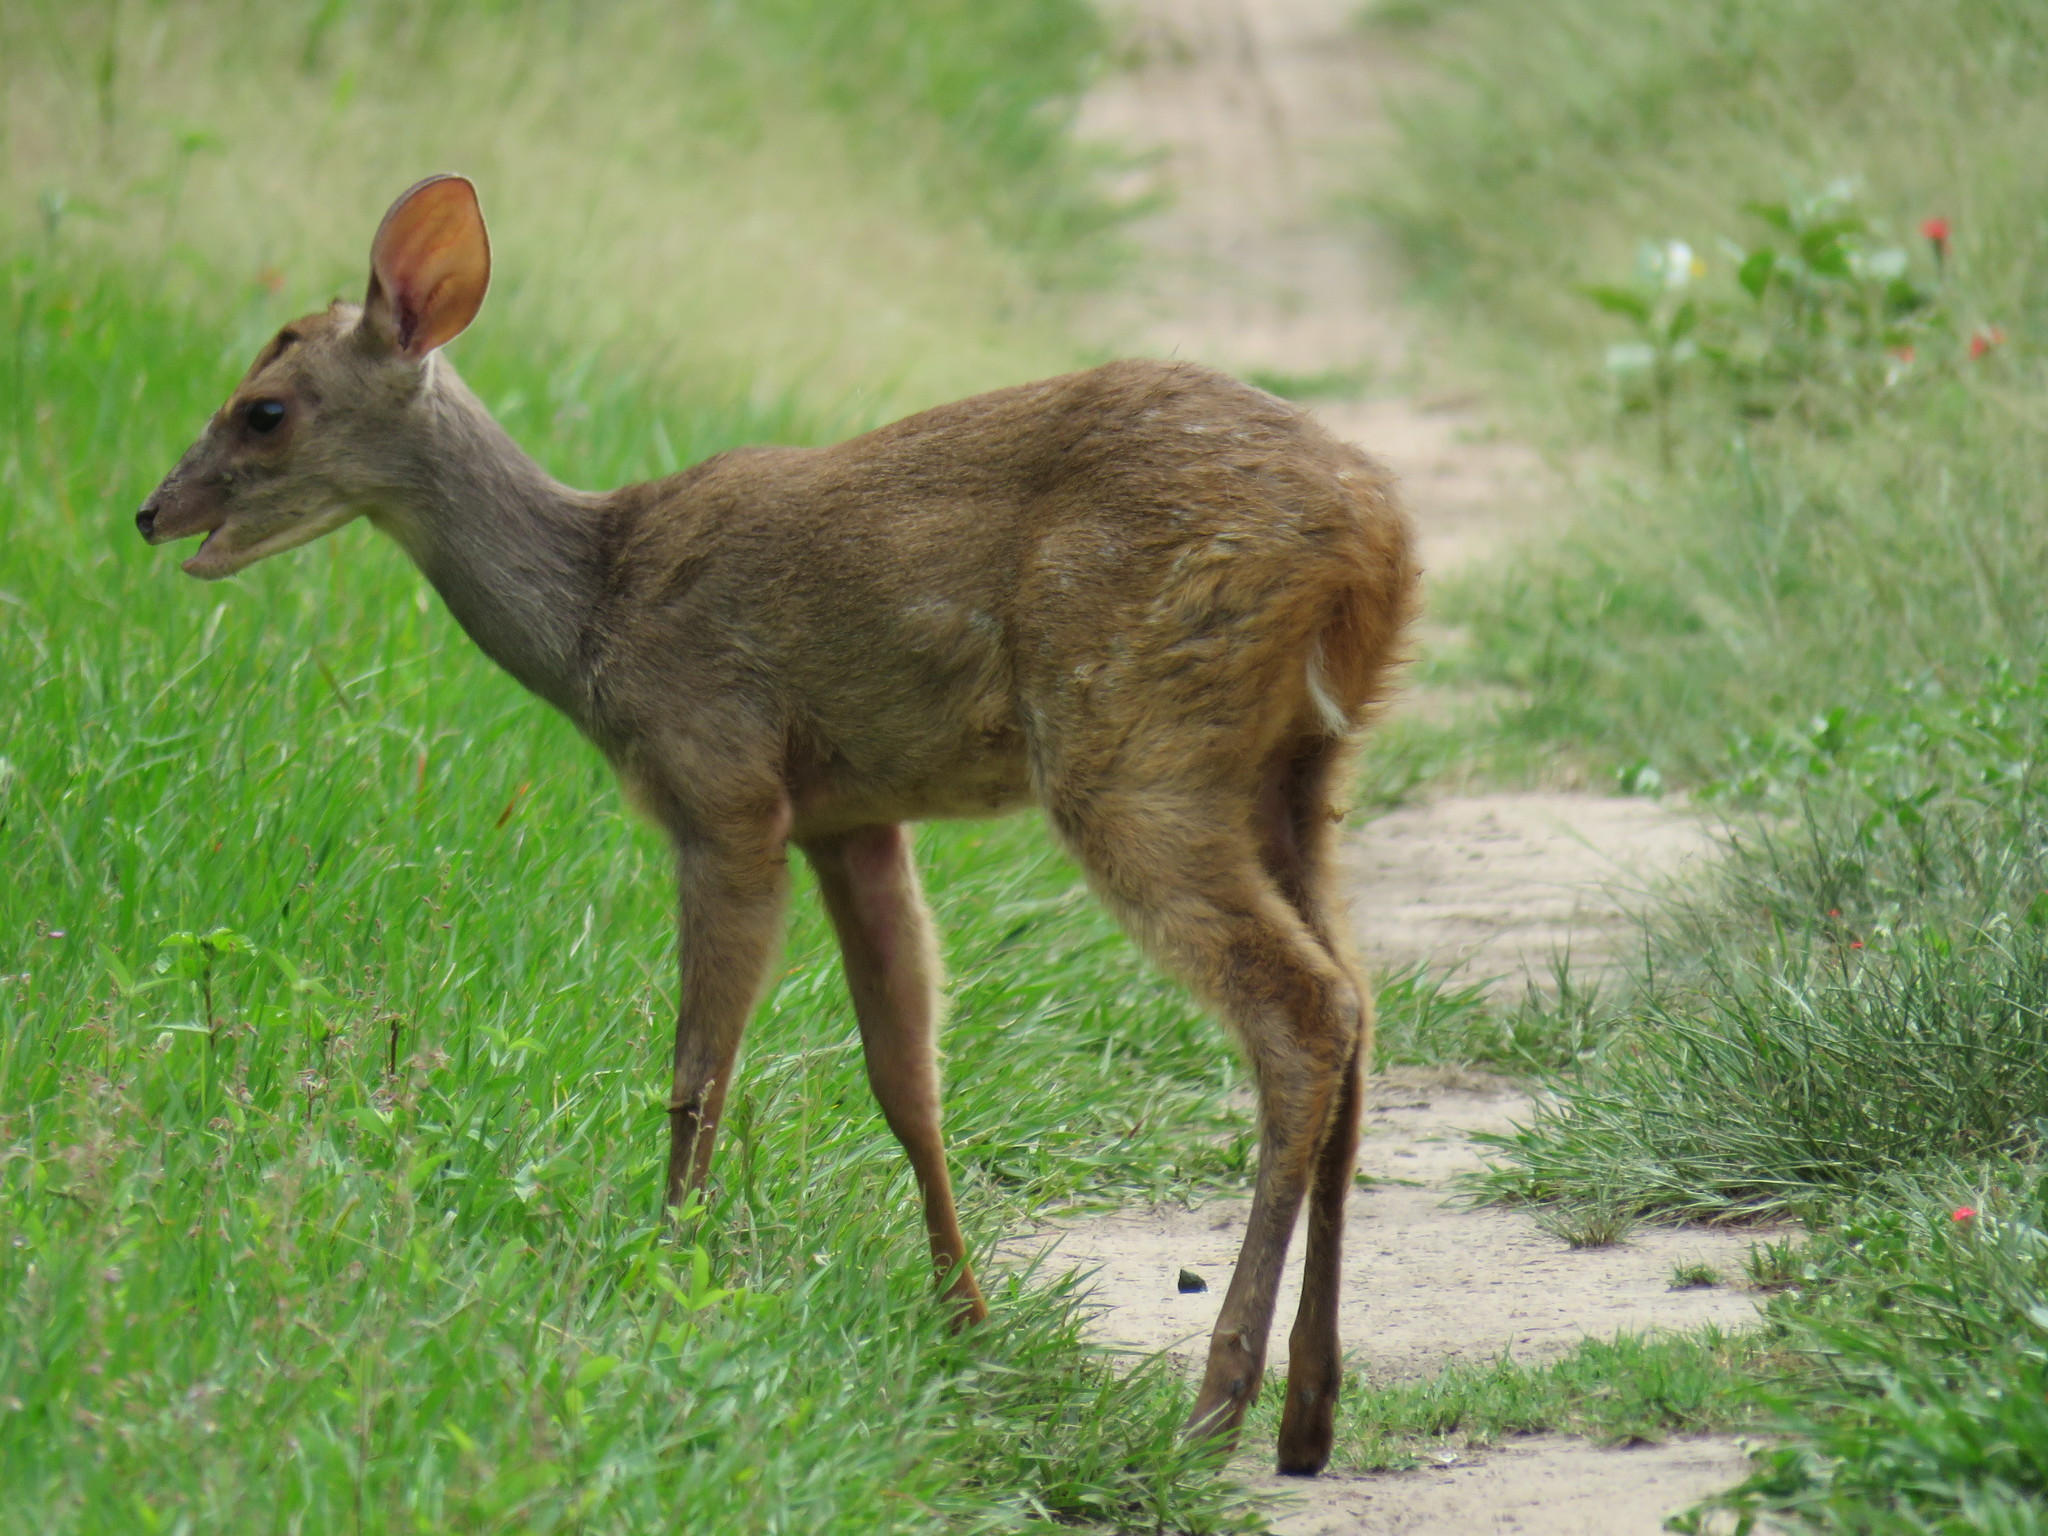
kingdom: Animalia
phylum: Chordata
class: Mammalia
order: Artiodactyla
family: Cervidae
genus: Mazama
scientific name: Mazama gouazoubira
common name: Gray brocket
